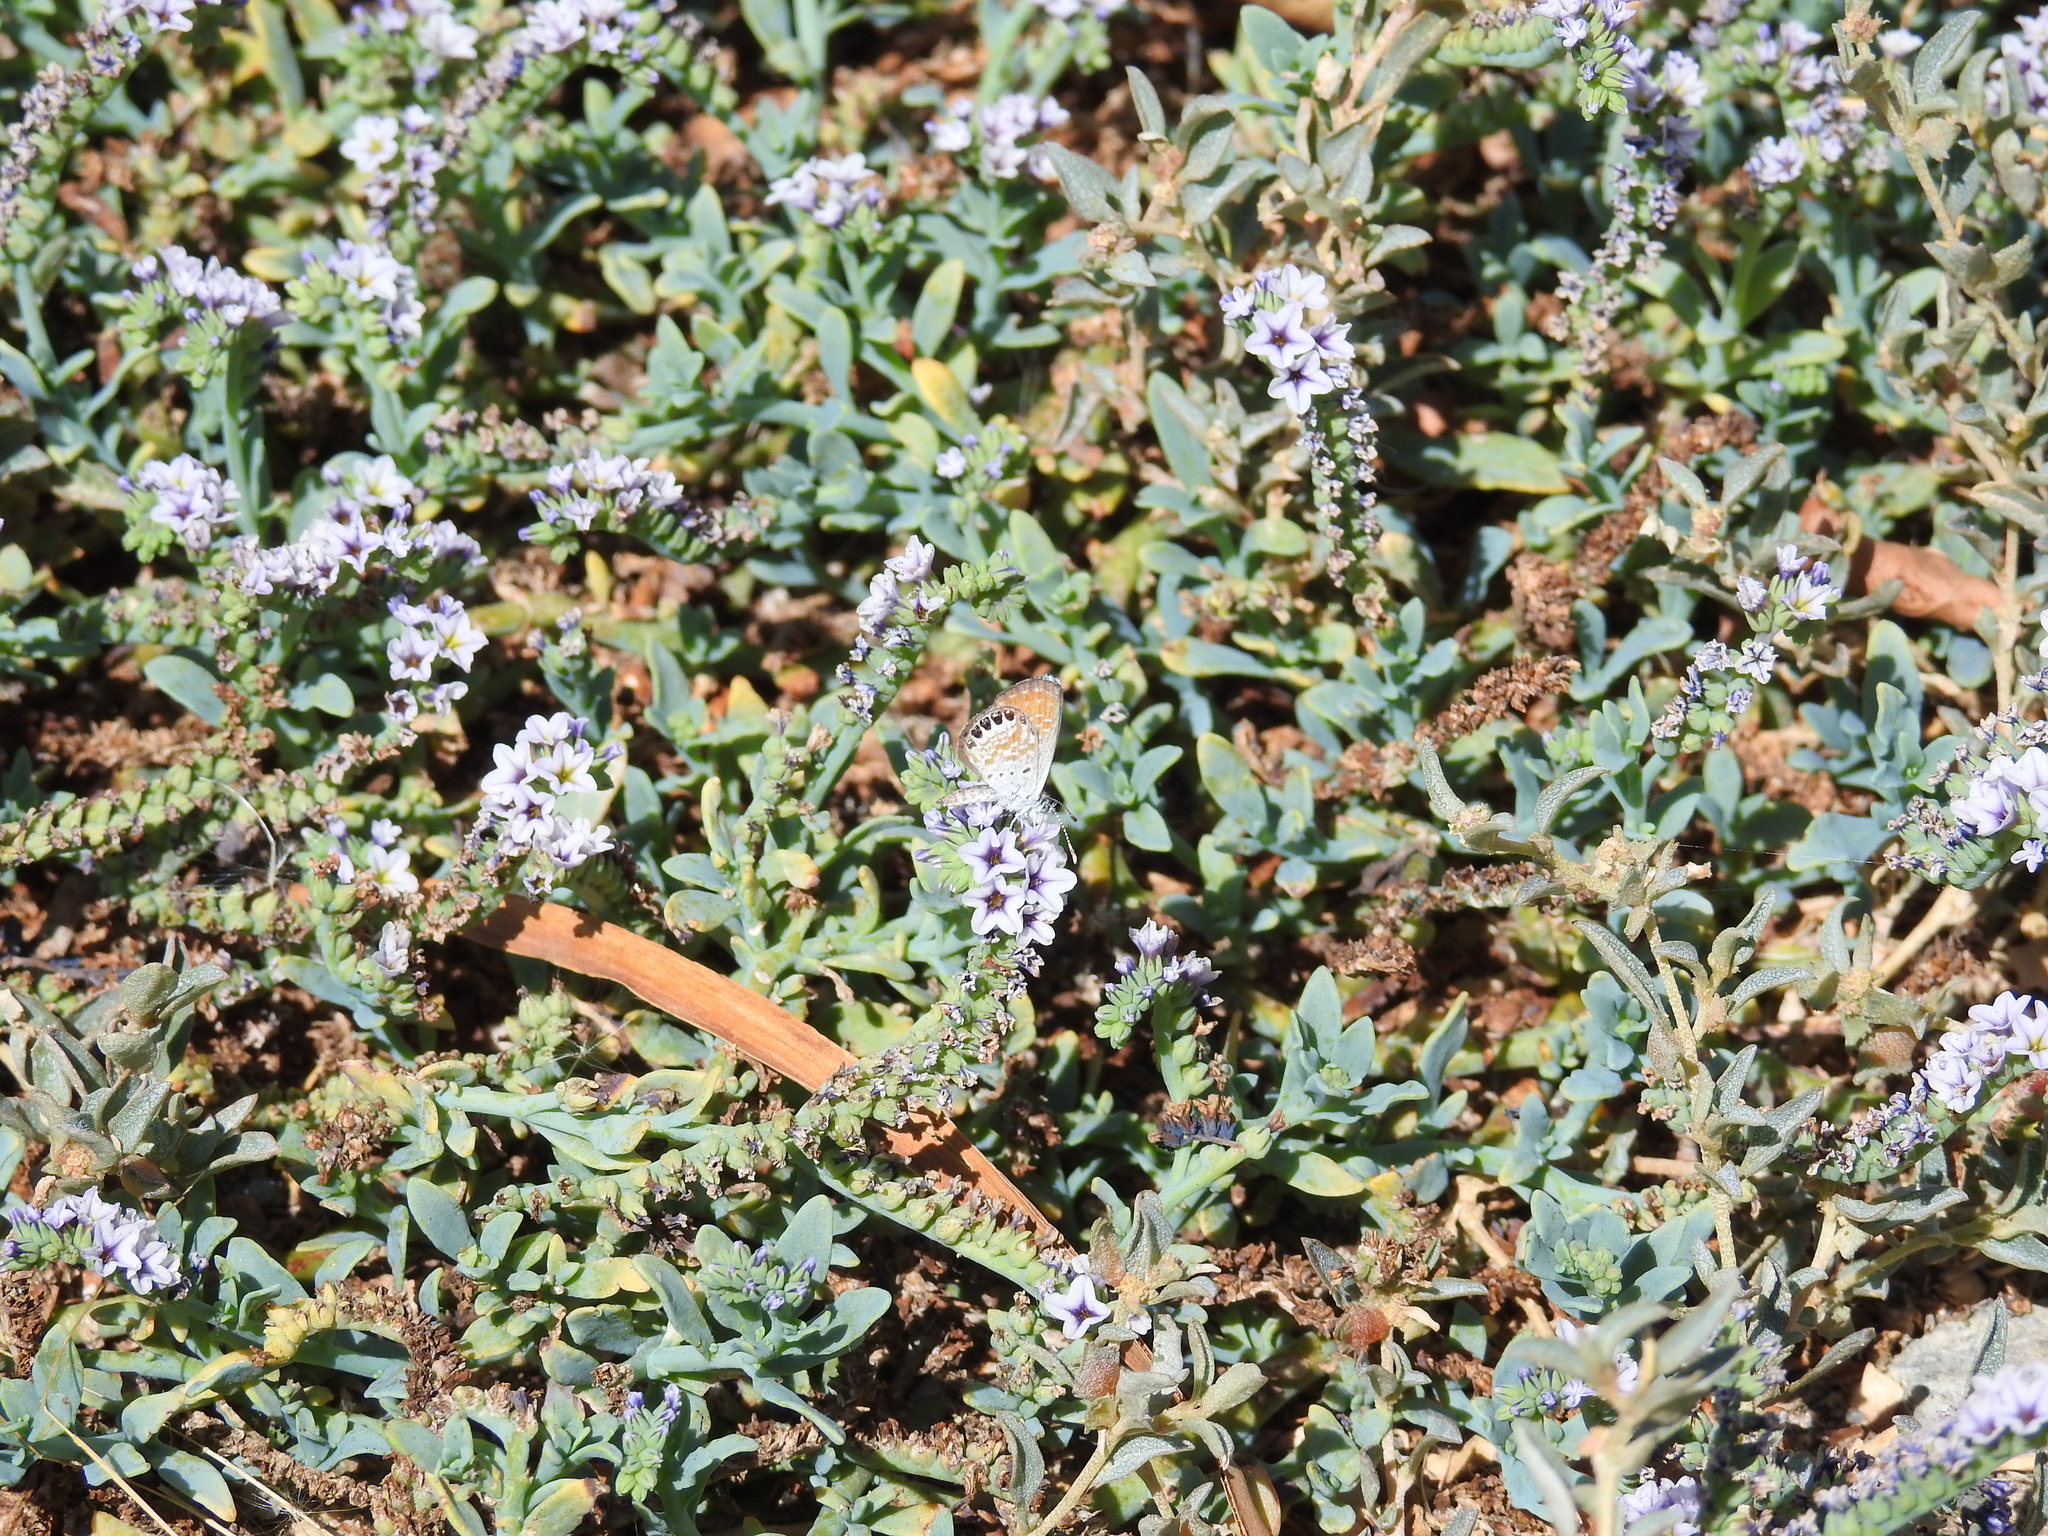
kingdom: Animalia
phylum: Arthropoda
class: Insecta
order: Lepidoptera
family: Lycaenidae
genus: Brephidium
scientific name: Brephidium exilis
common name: Pygmy blue
